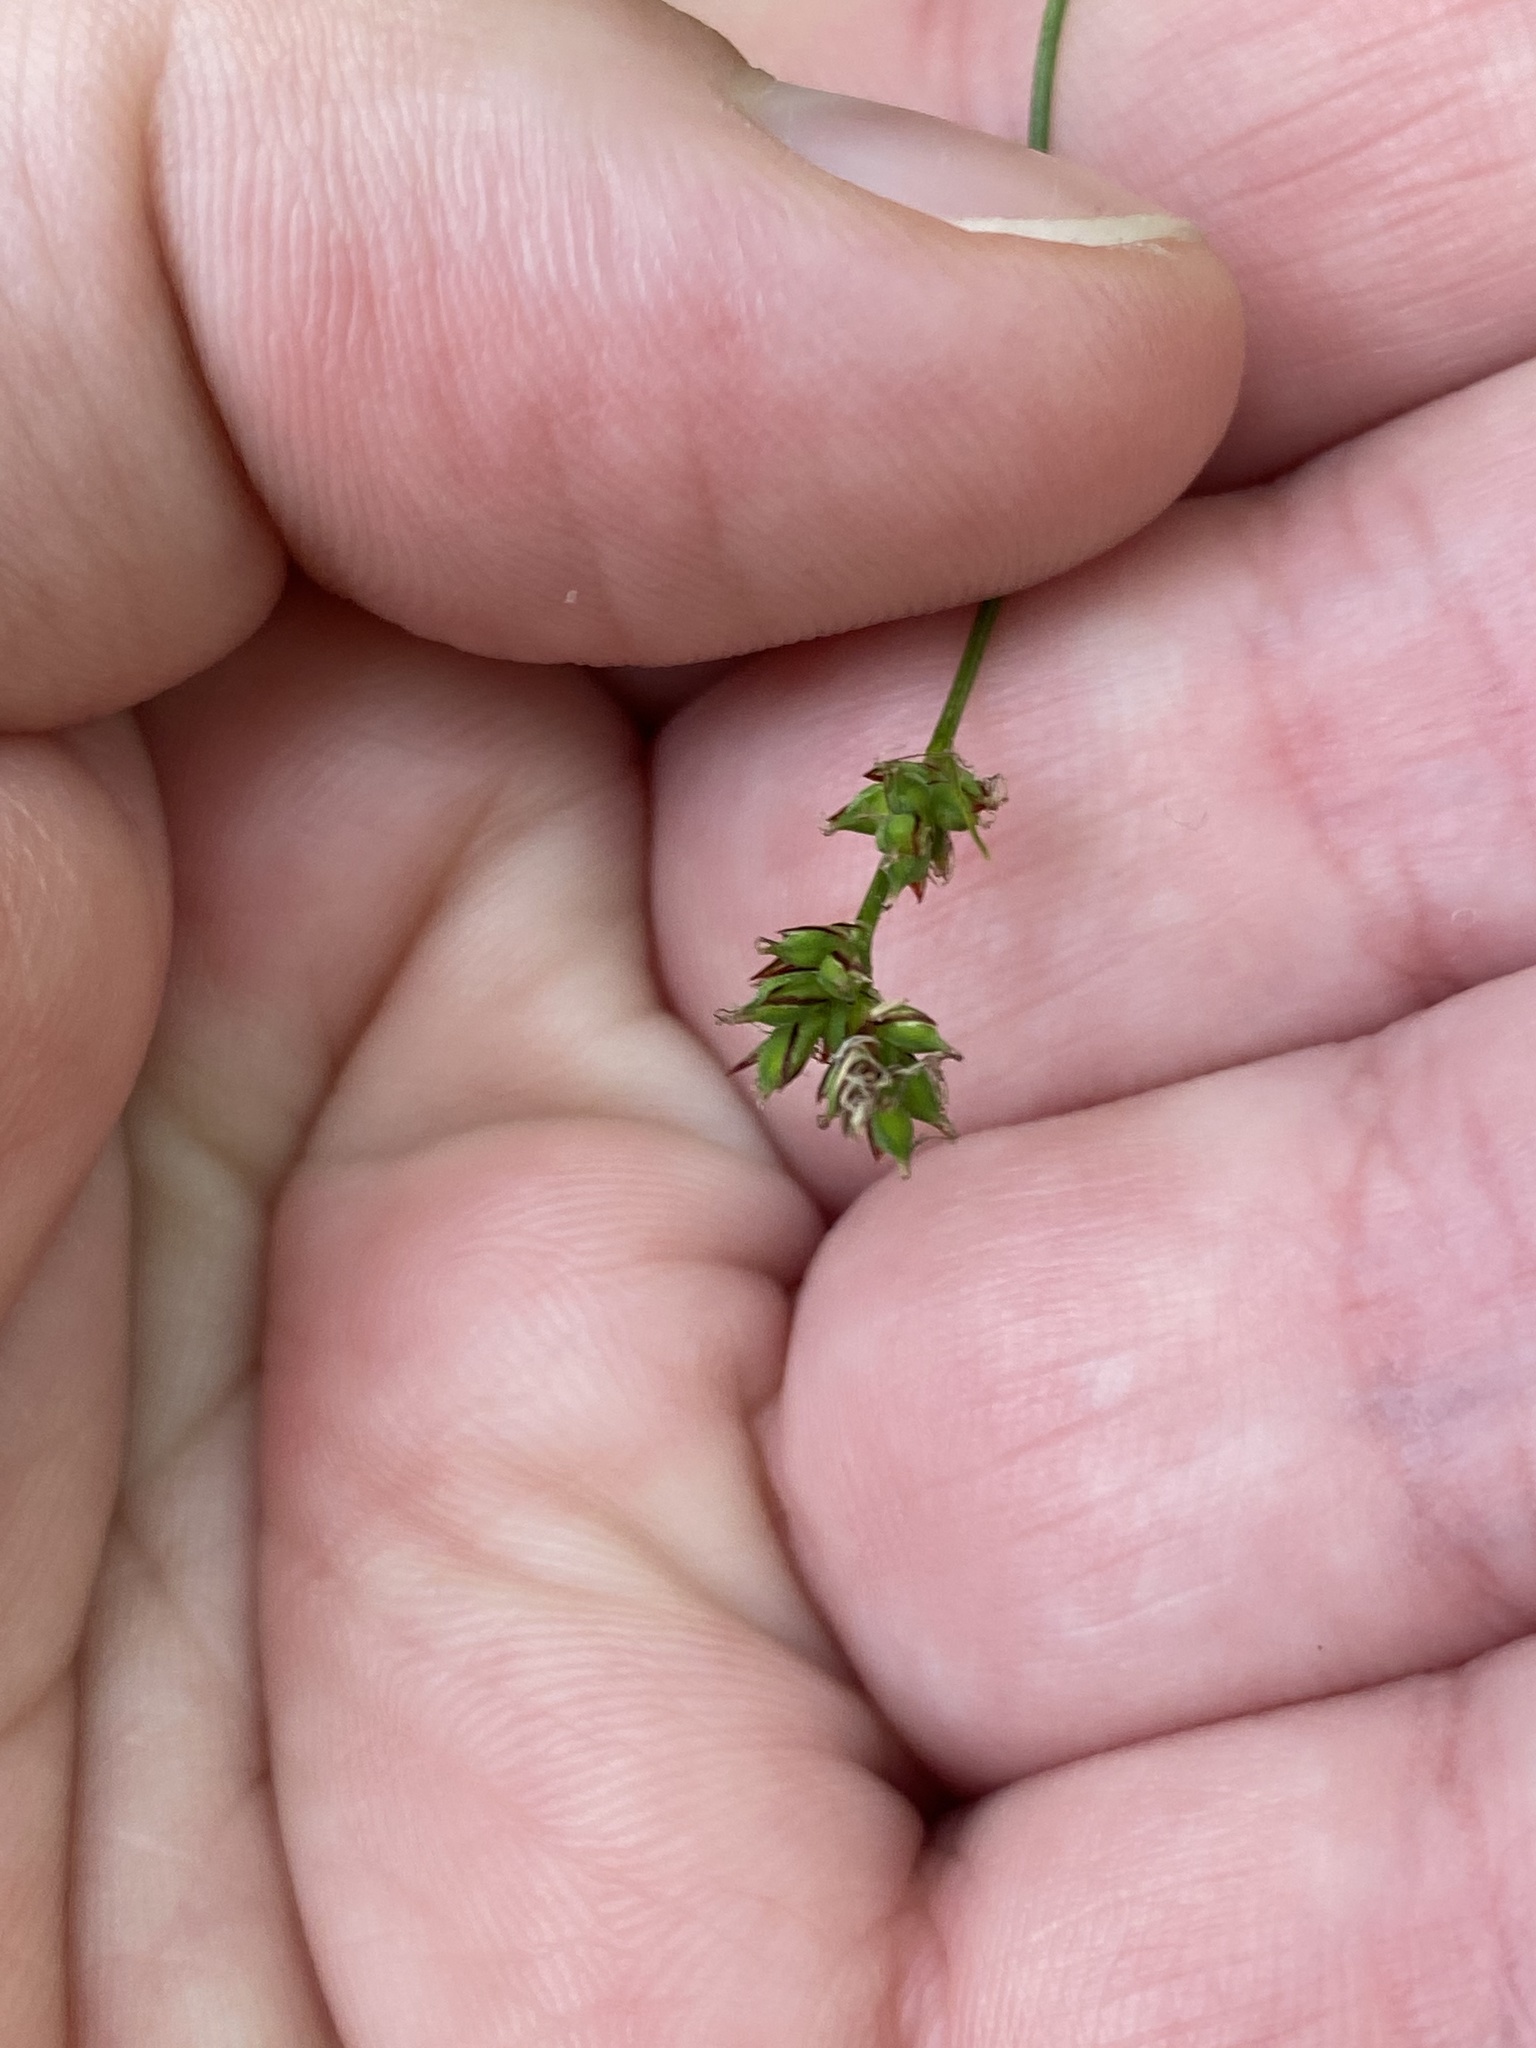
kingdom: Plantae
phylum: Tracheophyta
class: Liliopsida
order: Poales
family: Cyperaceae
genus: Carex
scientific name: Carex pensylvanica
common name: Common oak sedge
